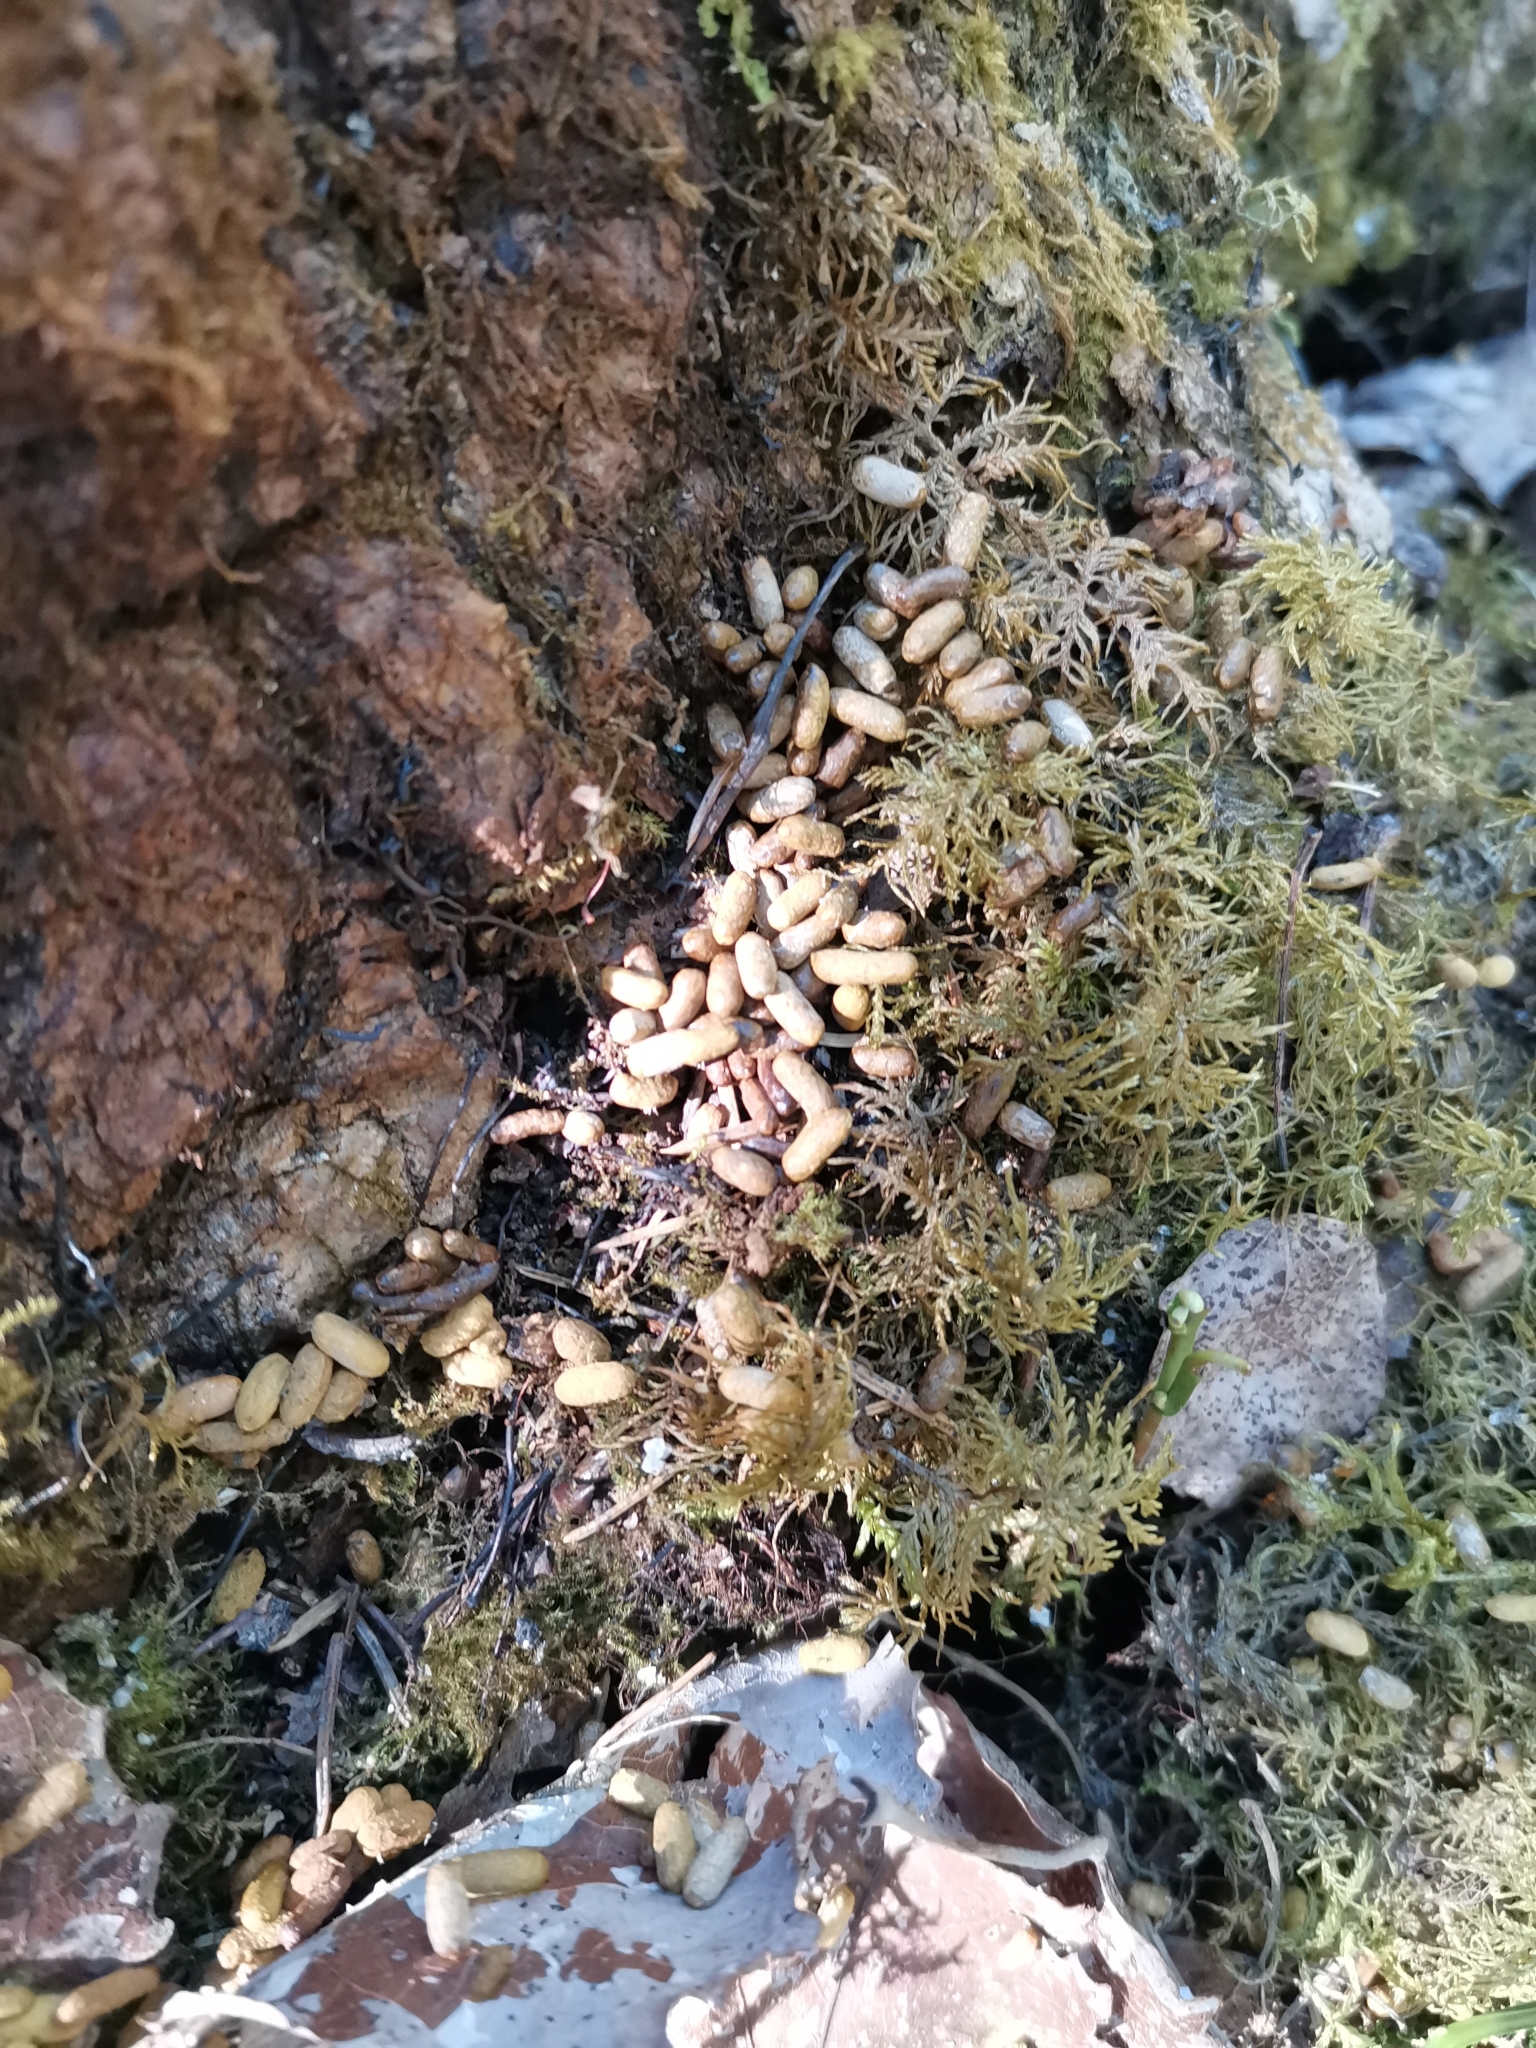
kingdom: Animalia
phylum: Chordata
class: Mammalia
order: Rodentia
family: Sciuridae
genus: Pteromys
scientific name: Pteromys volans
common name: Siberian flying squirrel
